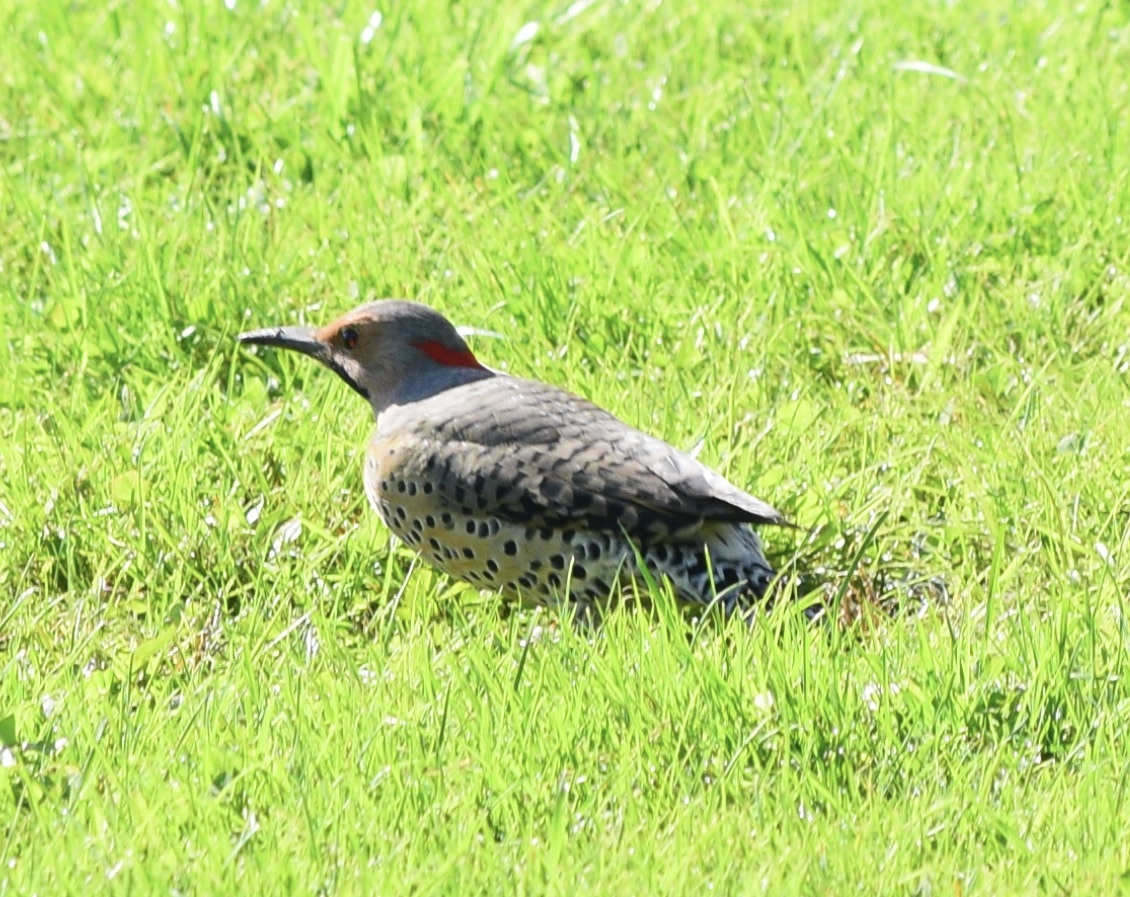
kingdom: Animalia
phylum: Chordata
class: Aves
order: Piciformes
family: Picidae
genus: Colaptes
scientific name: Colaptes auratus
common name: Northern flicker
